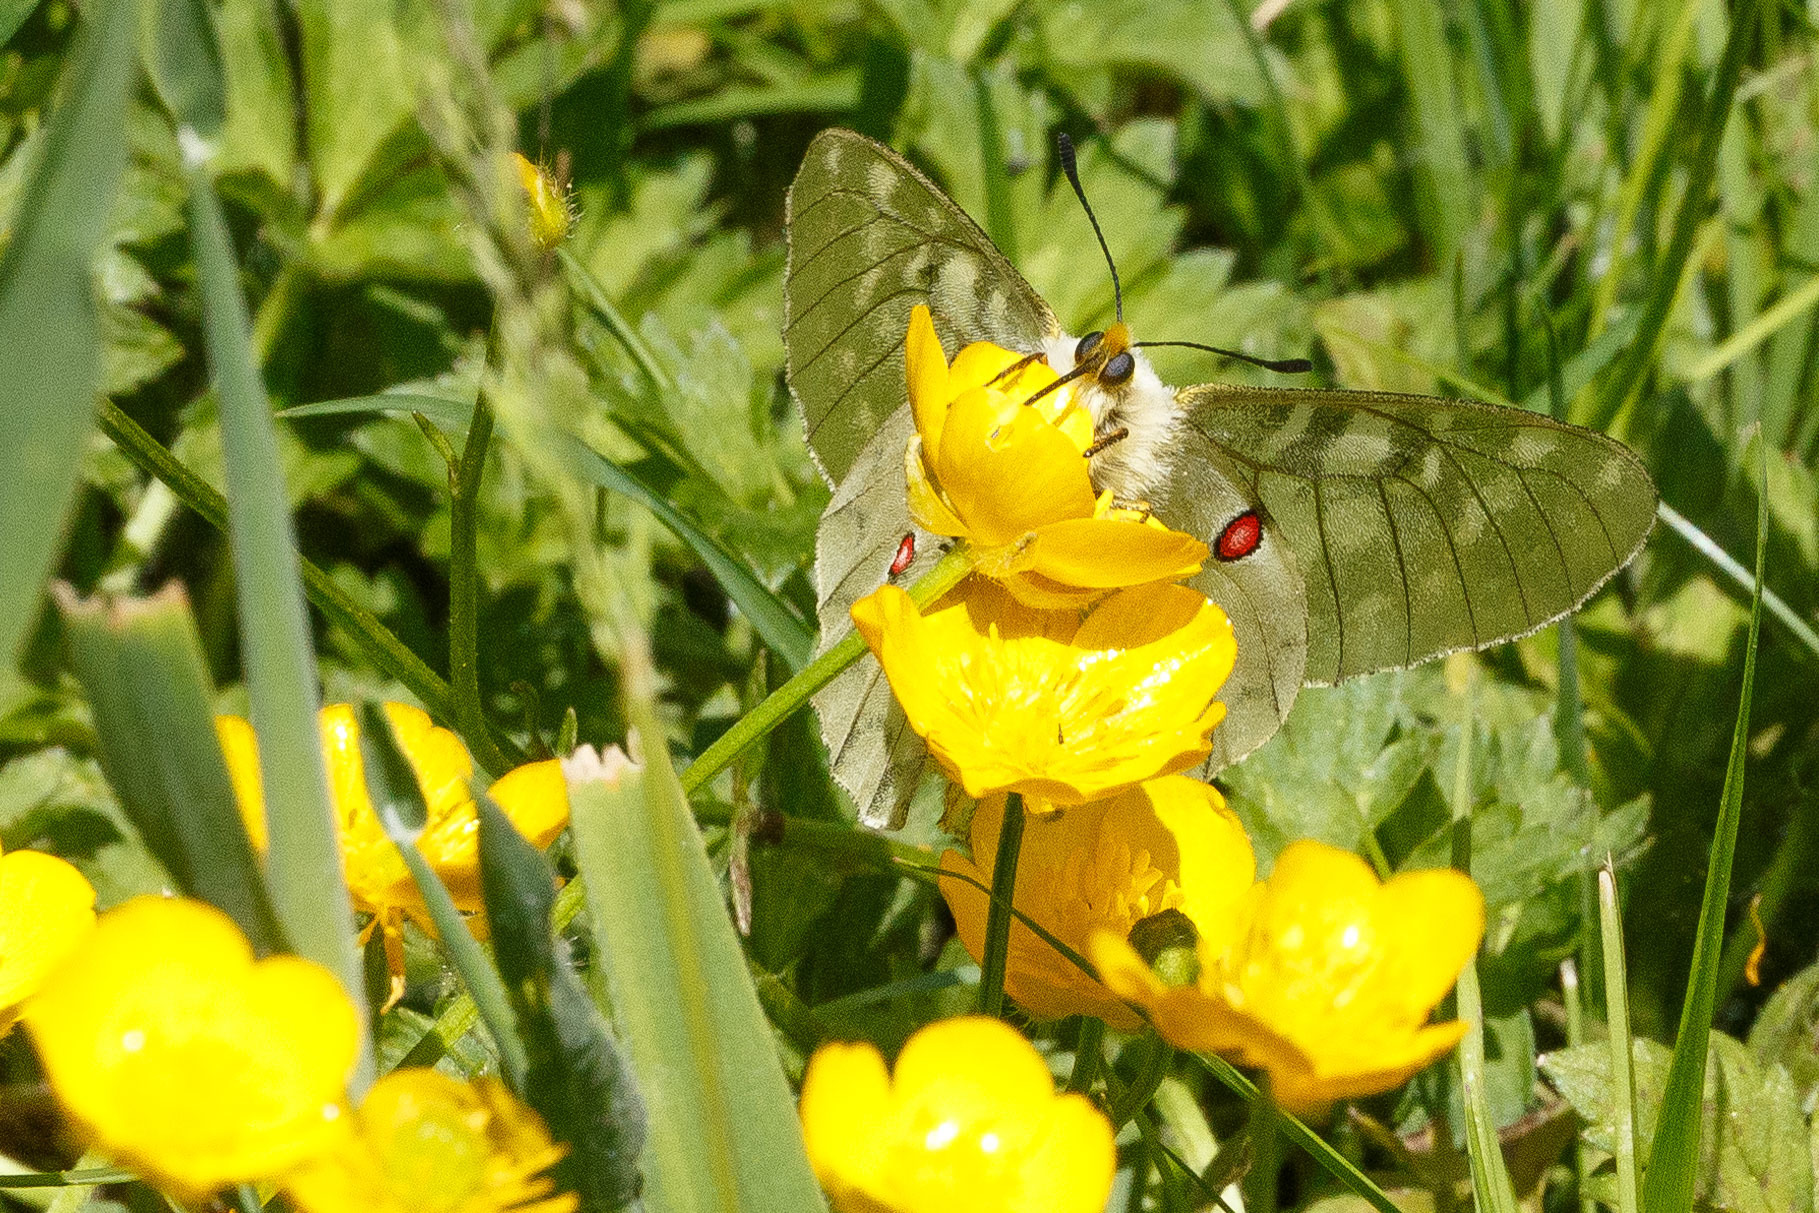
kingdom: Animalia
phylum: Arthropoda
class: Insecta
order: Lepidoptera
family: Papilionidae
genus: Parnassius
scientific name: Parnassius clodius
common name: American apollo
